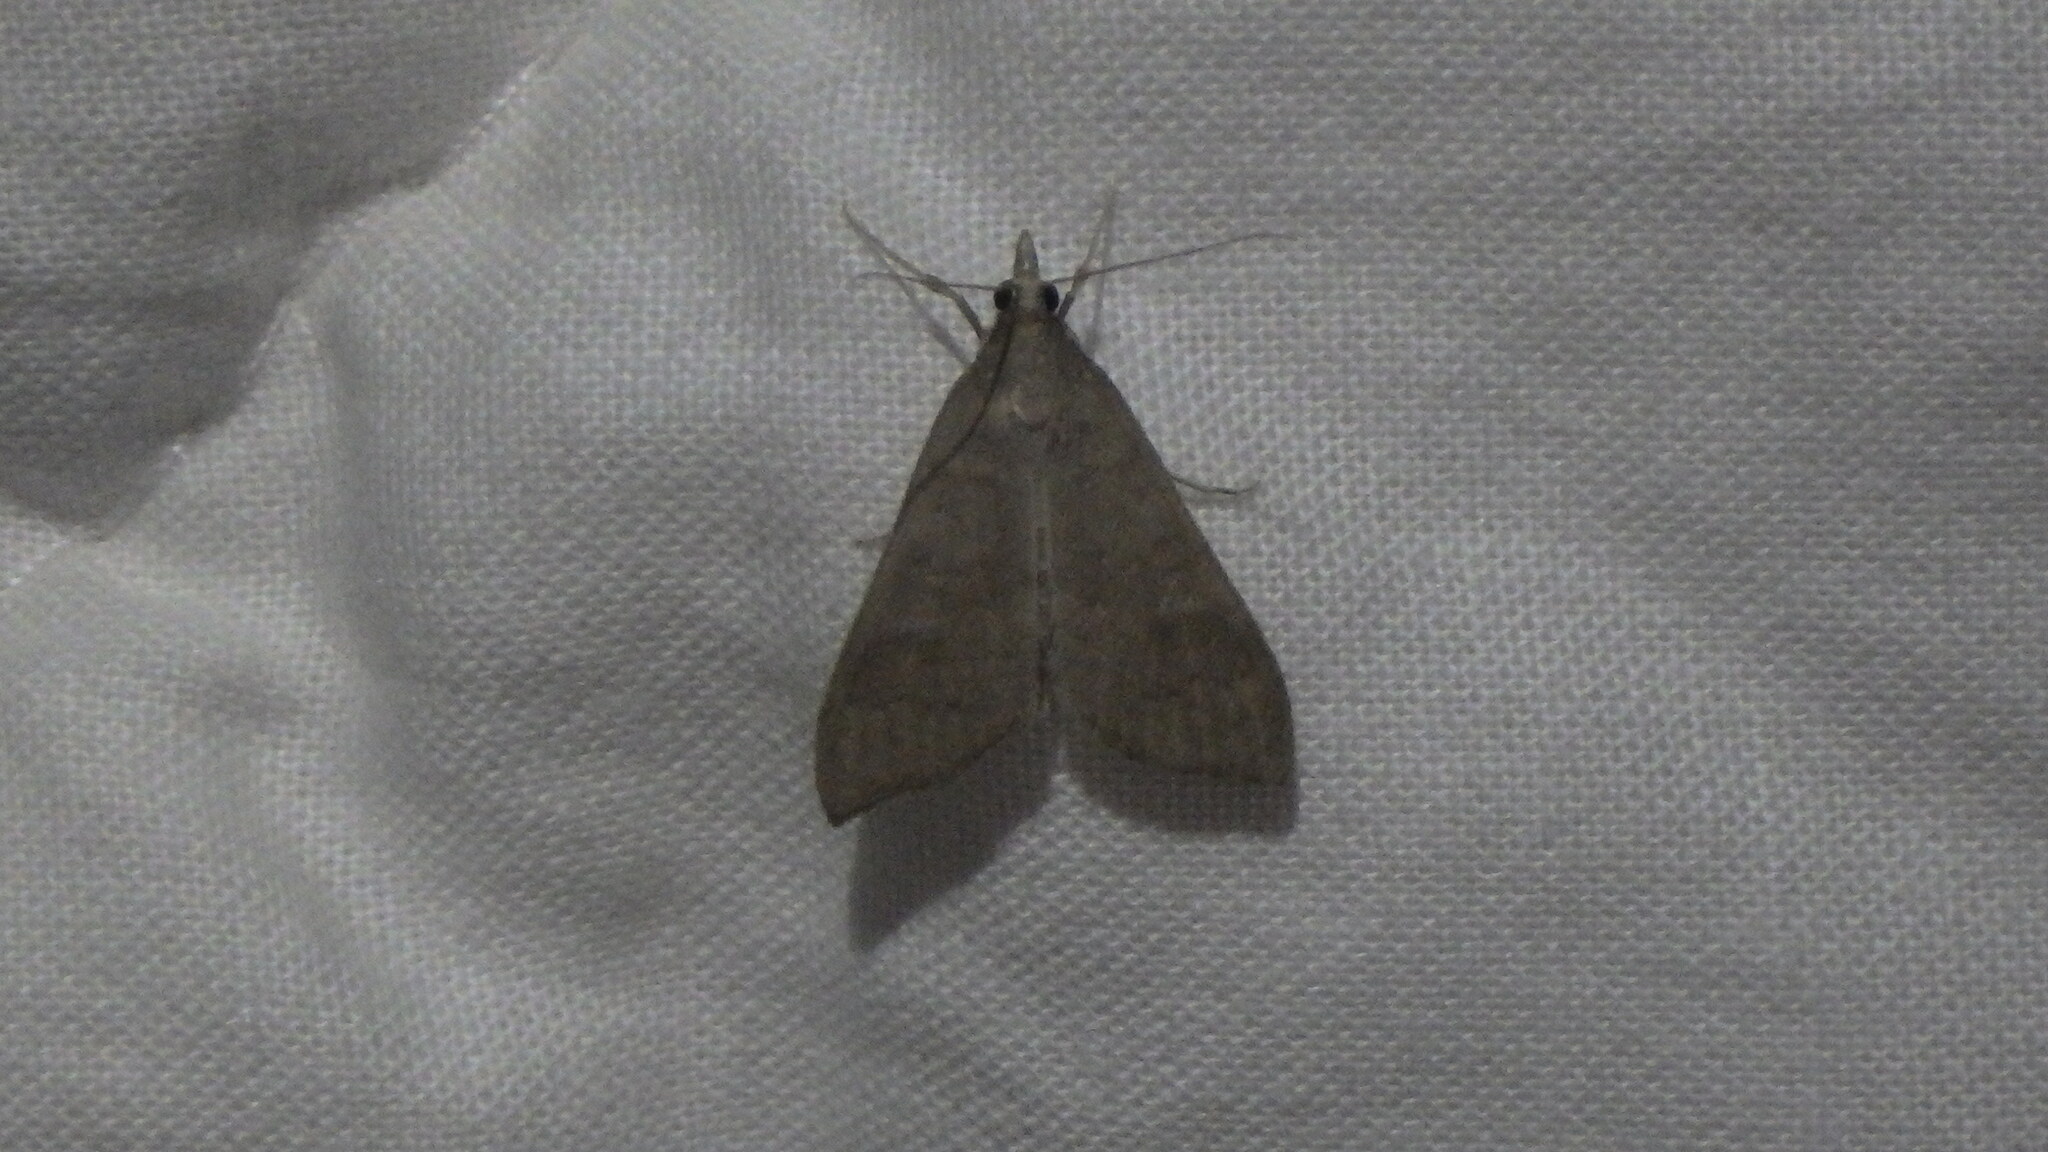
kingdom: Animalia
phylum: Arthropoda
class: Insecta
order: Lepidoptera
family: Crambidae
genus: Mecyna
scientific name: Mecyna asinalis
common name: Coastal pearl
